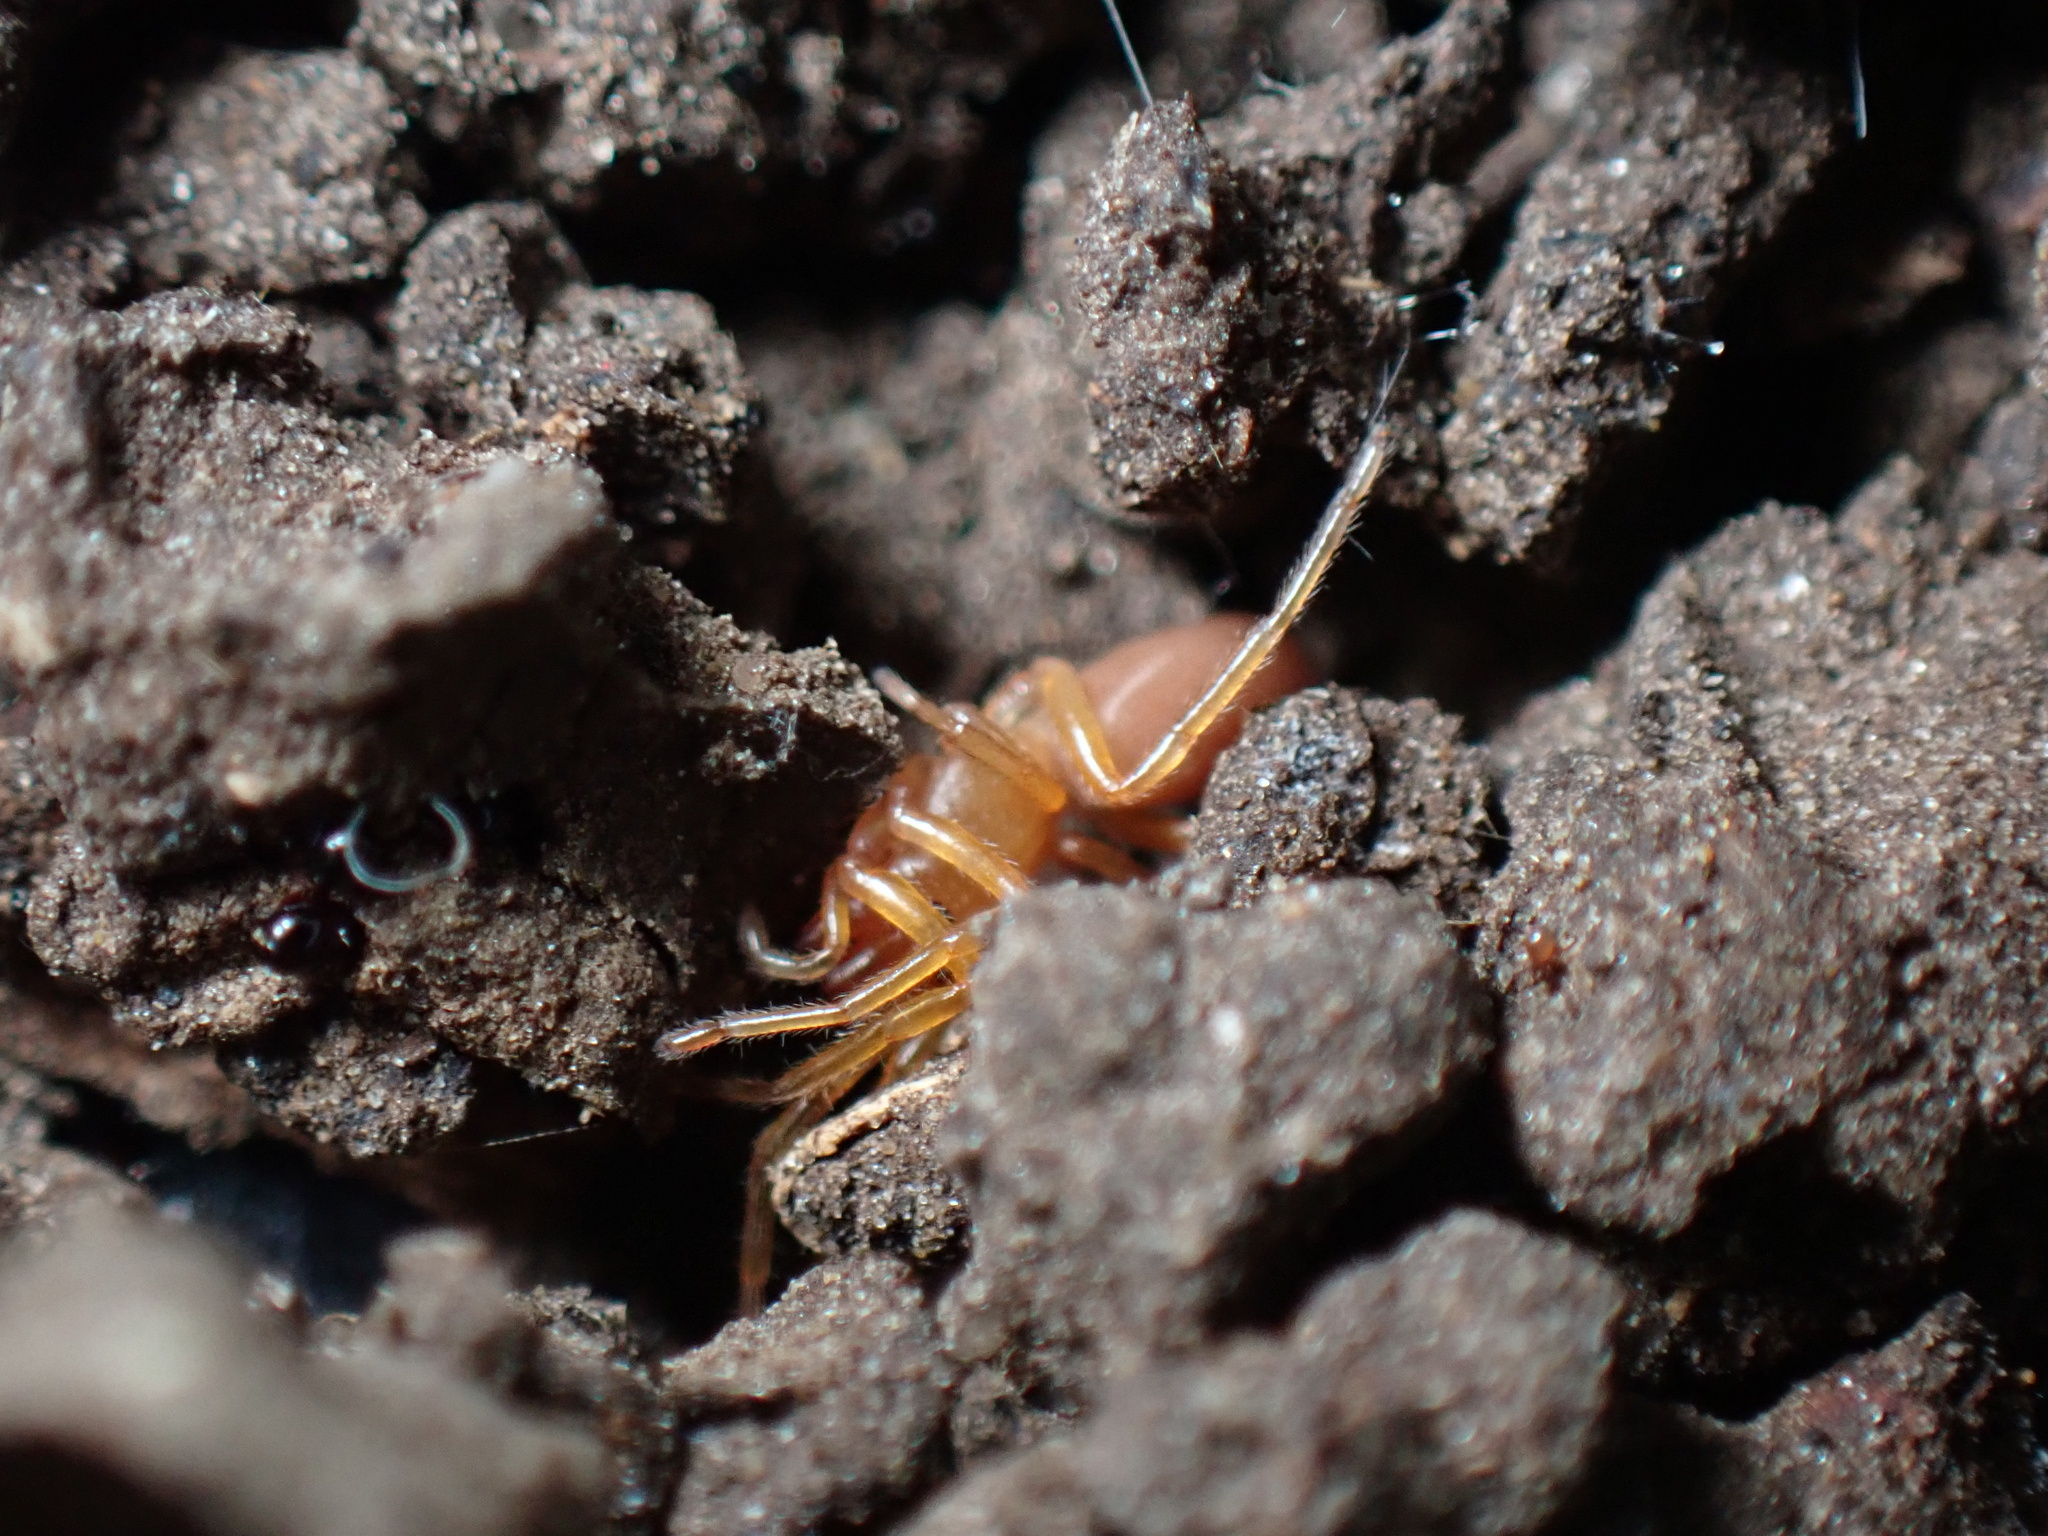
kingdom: Animalia
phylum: Arthropoda
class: Arachnida
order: Araneae
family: Dysderidae
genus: Dysdera
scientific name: Dysdera crocata
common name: Woodlouse spider
